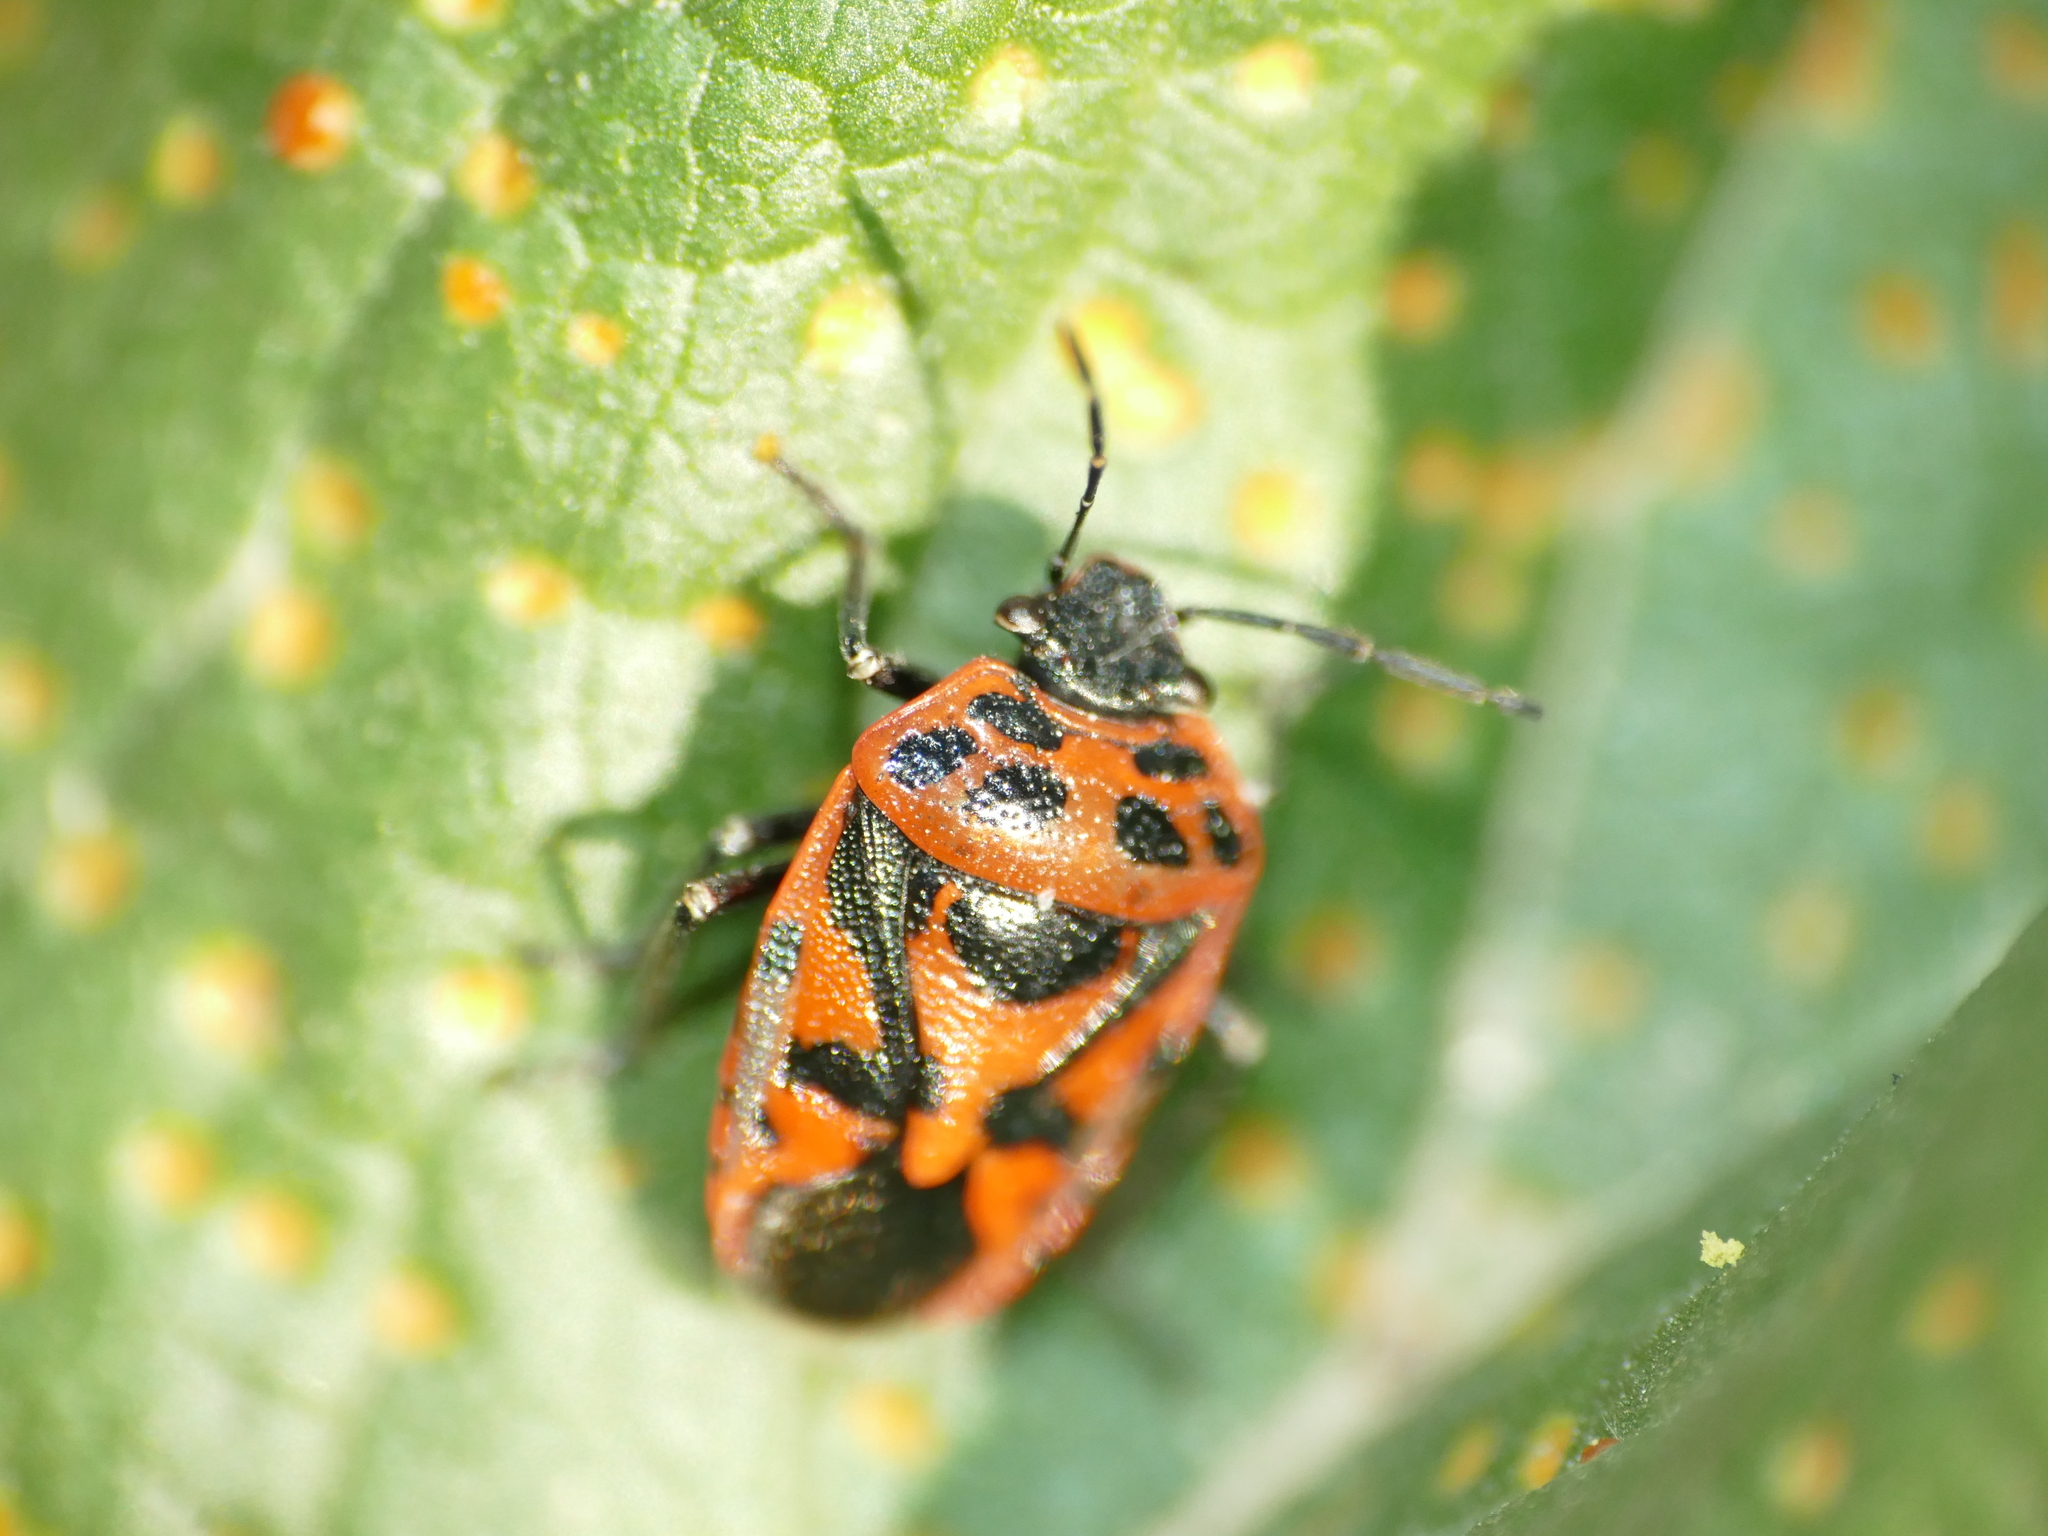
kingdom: Animalia
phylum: Arthropoda
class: Insecta
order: Hemiptera
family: Pentatomidae
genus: Eurydema
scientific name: Eurydema ornata
